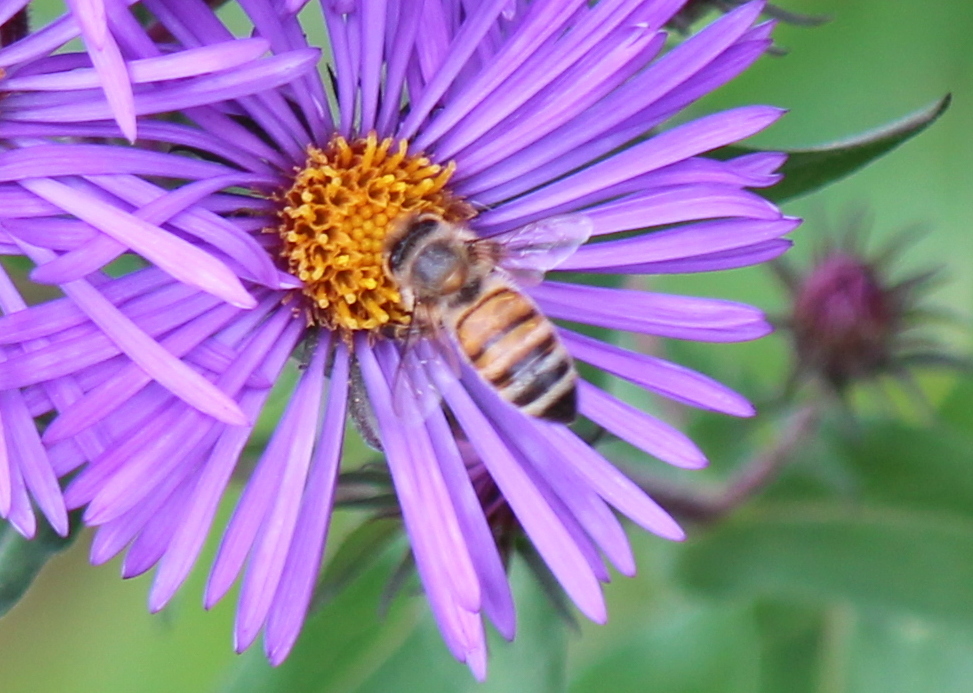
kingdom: Animalia
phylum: Arthropoda
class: Insecta
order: Hymenoptera
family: Apidae
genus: Apis
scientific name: Apis mellifera
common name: Honey bee
